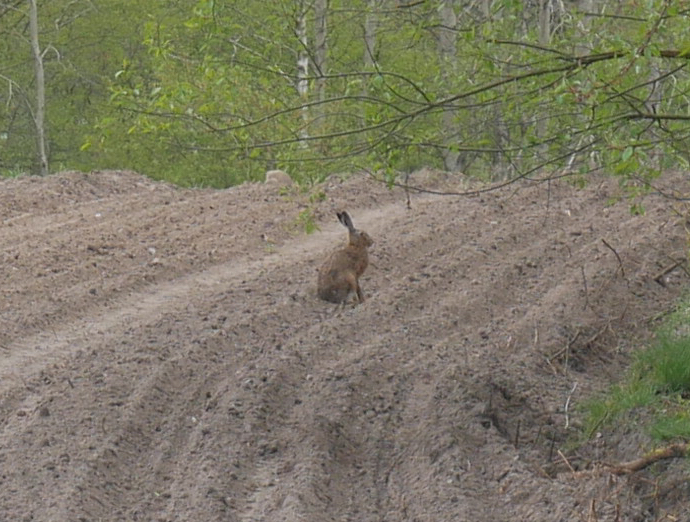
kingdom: Animalia
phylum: Chordata
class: Mammalia
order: Lagomorpha
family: Leporidae
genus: Lepus
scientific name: Lepus europaeus
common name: European hare
